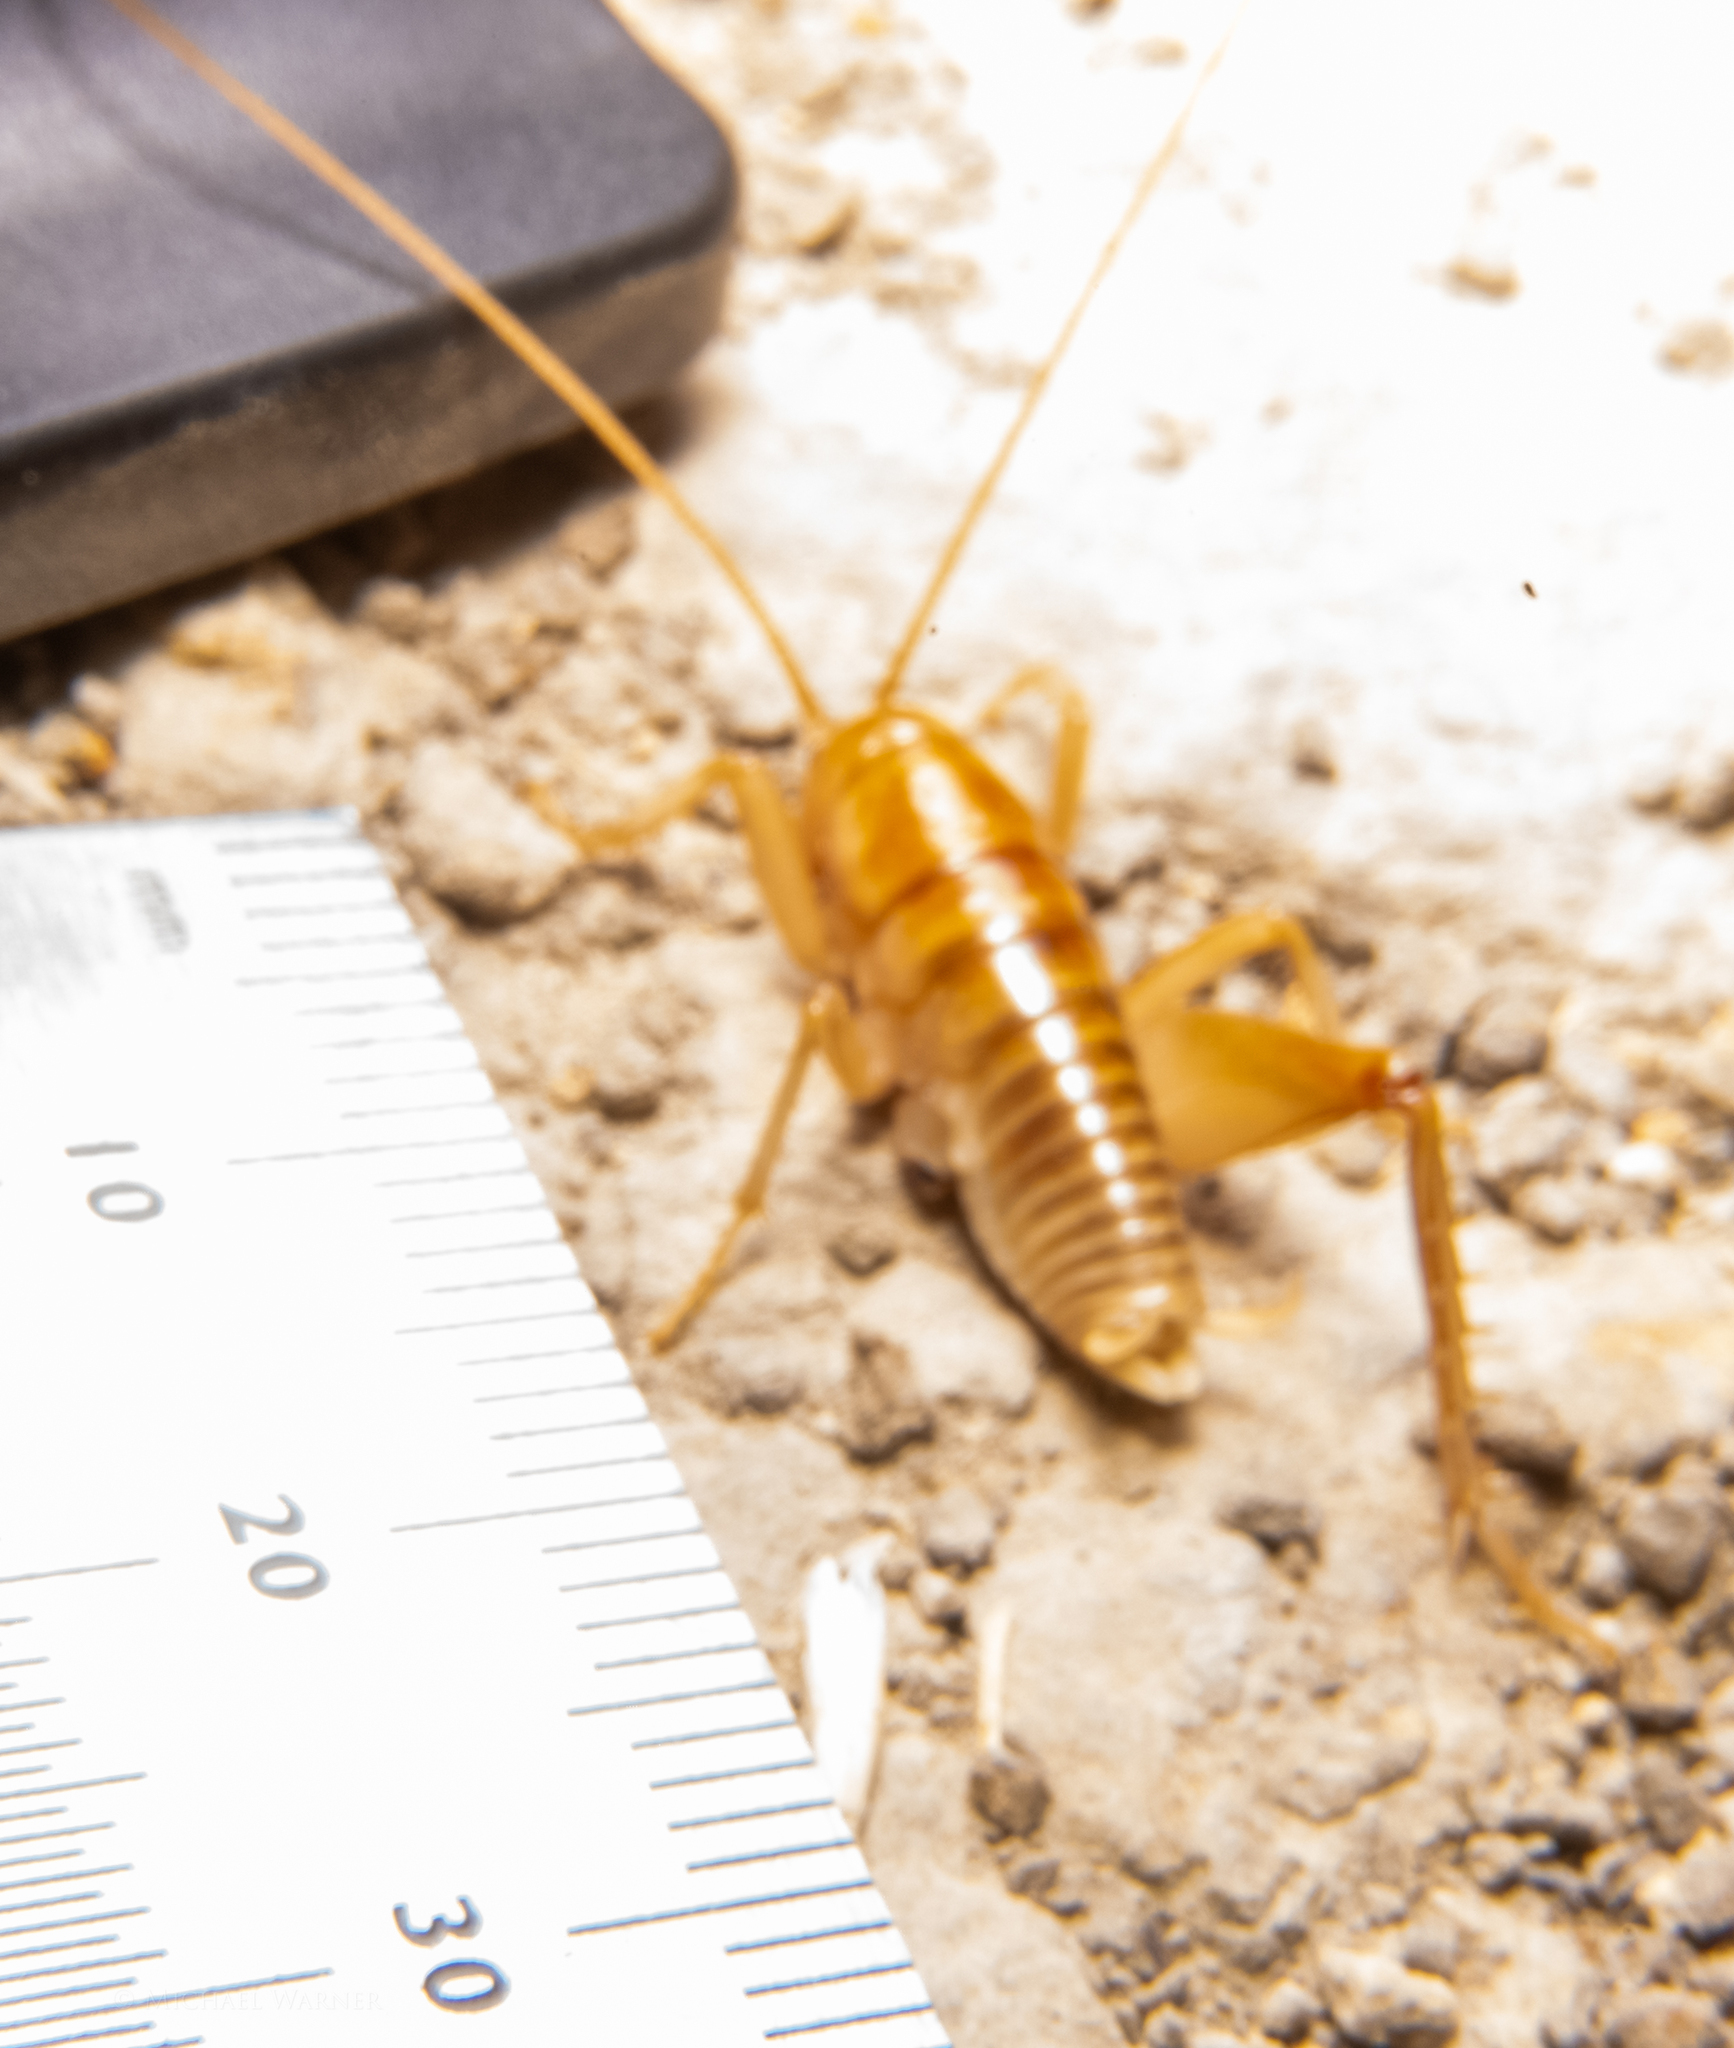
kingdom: Animalia
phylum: Arthropoda
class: Insecta
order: Orthoptera
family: Rhaphidophoridae
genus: Ceuthophilus
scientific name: Ceuthophilus californianus
